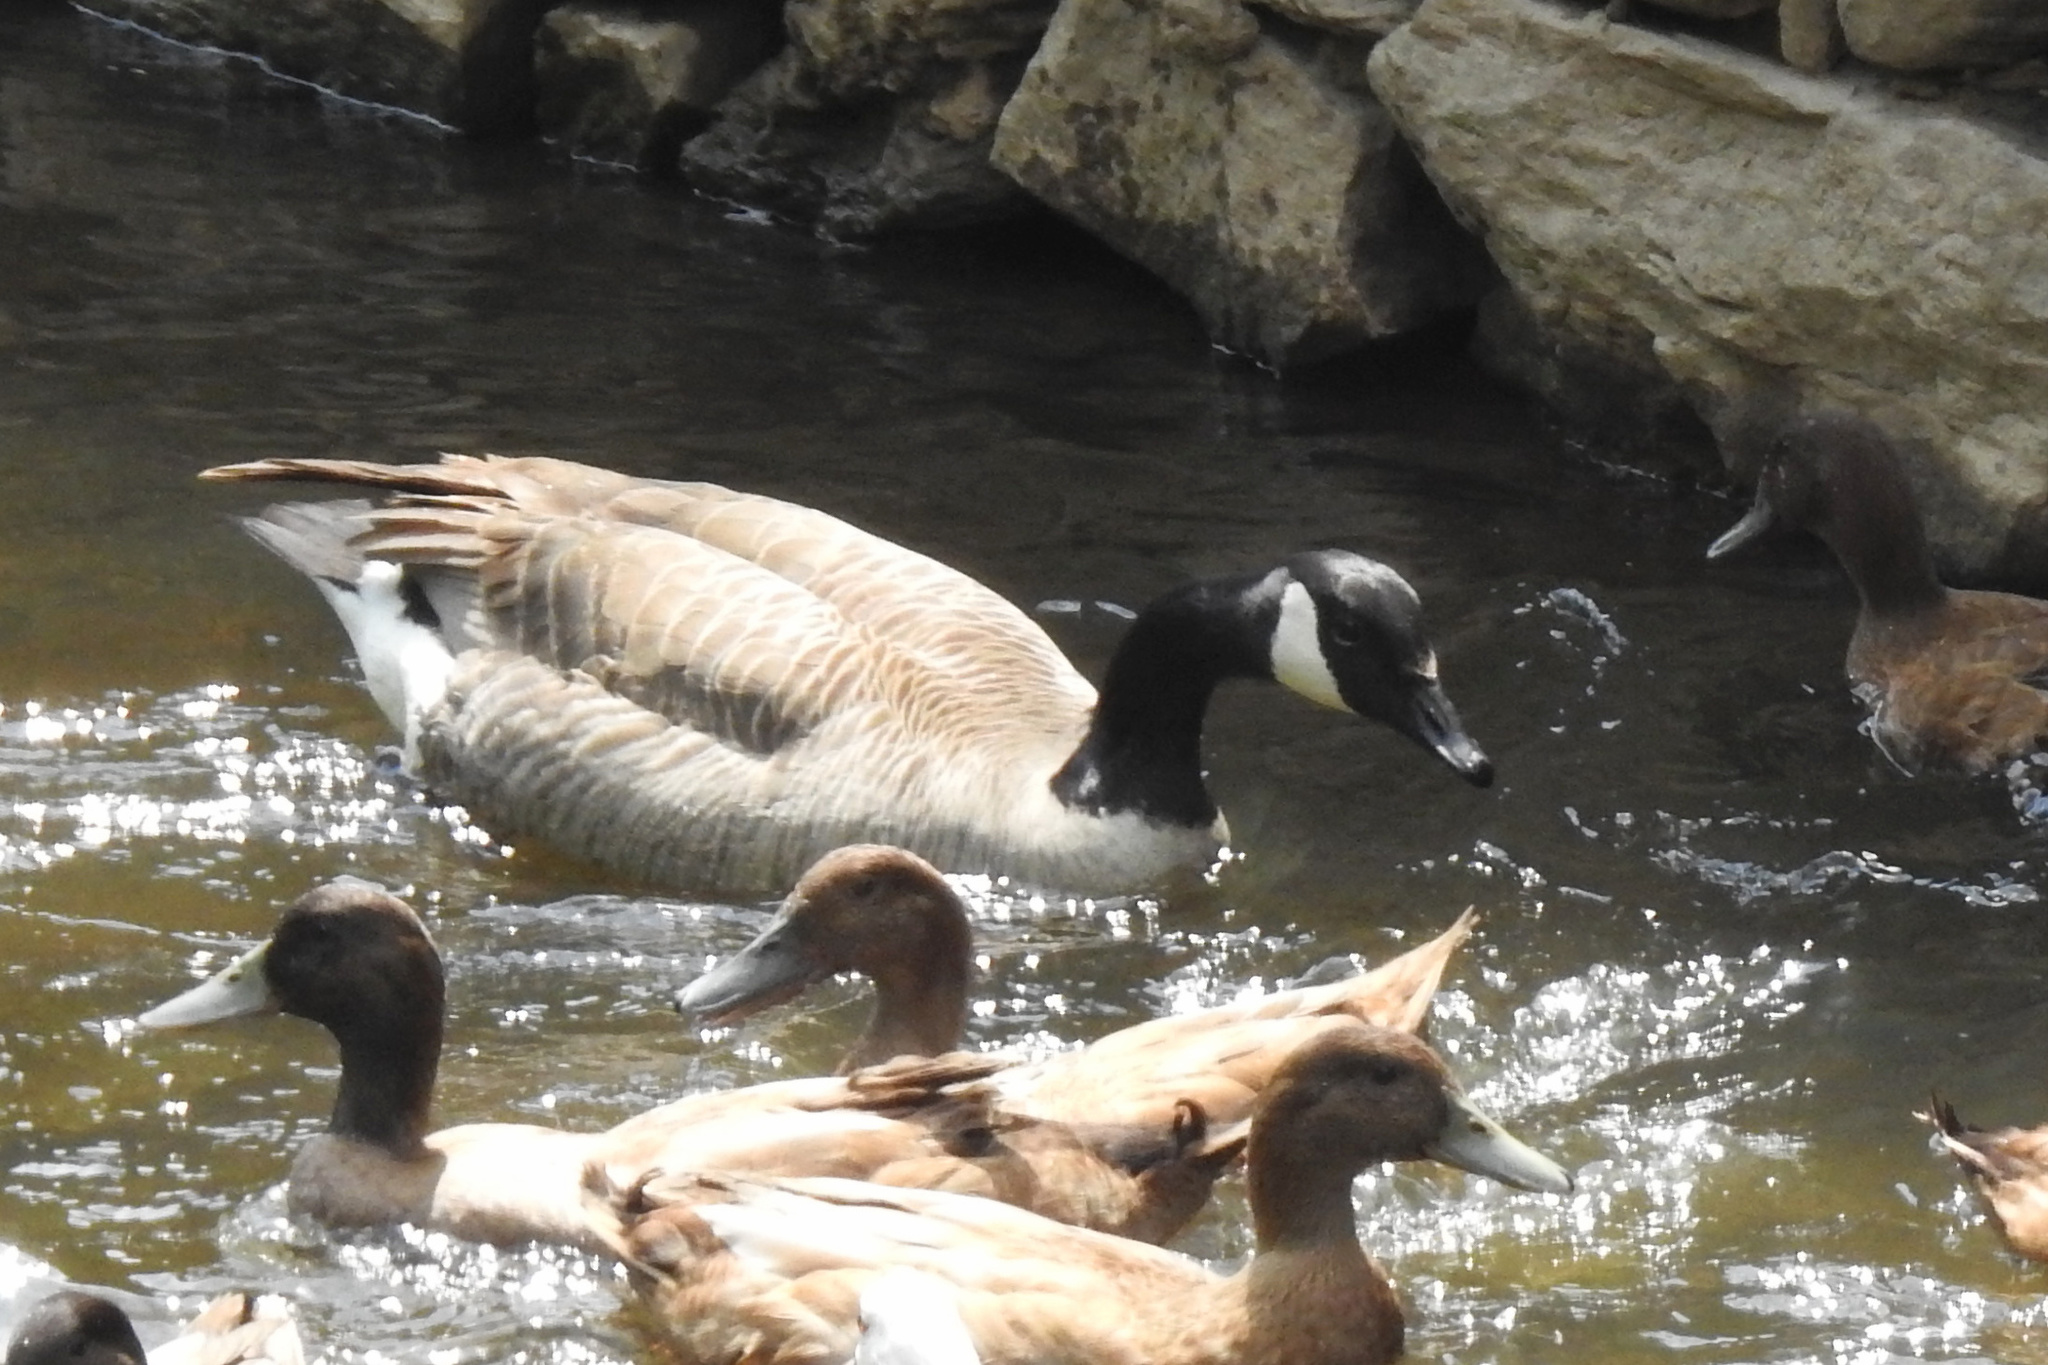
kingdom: Animalia
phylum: Chordata
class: Aves
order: Anseriformes
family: Anatidae
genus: Branta
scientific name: Branta canadensis
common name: Canada goose
